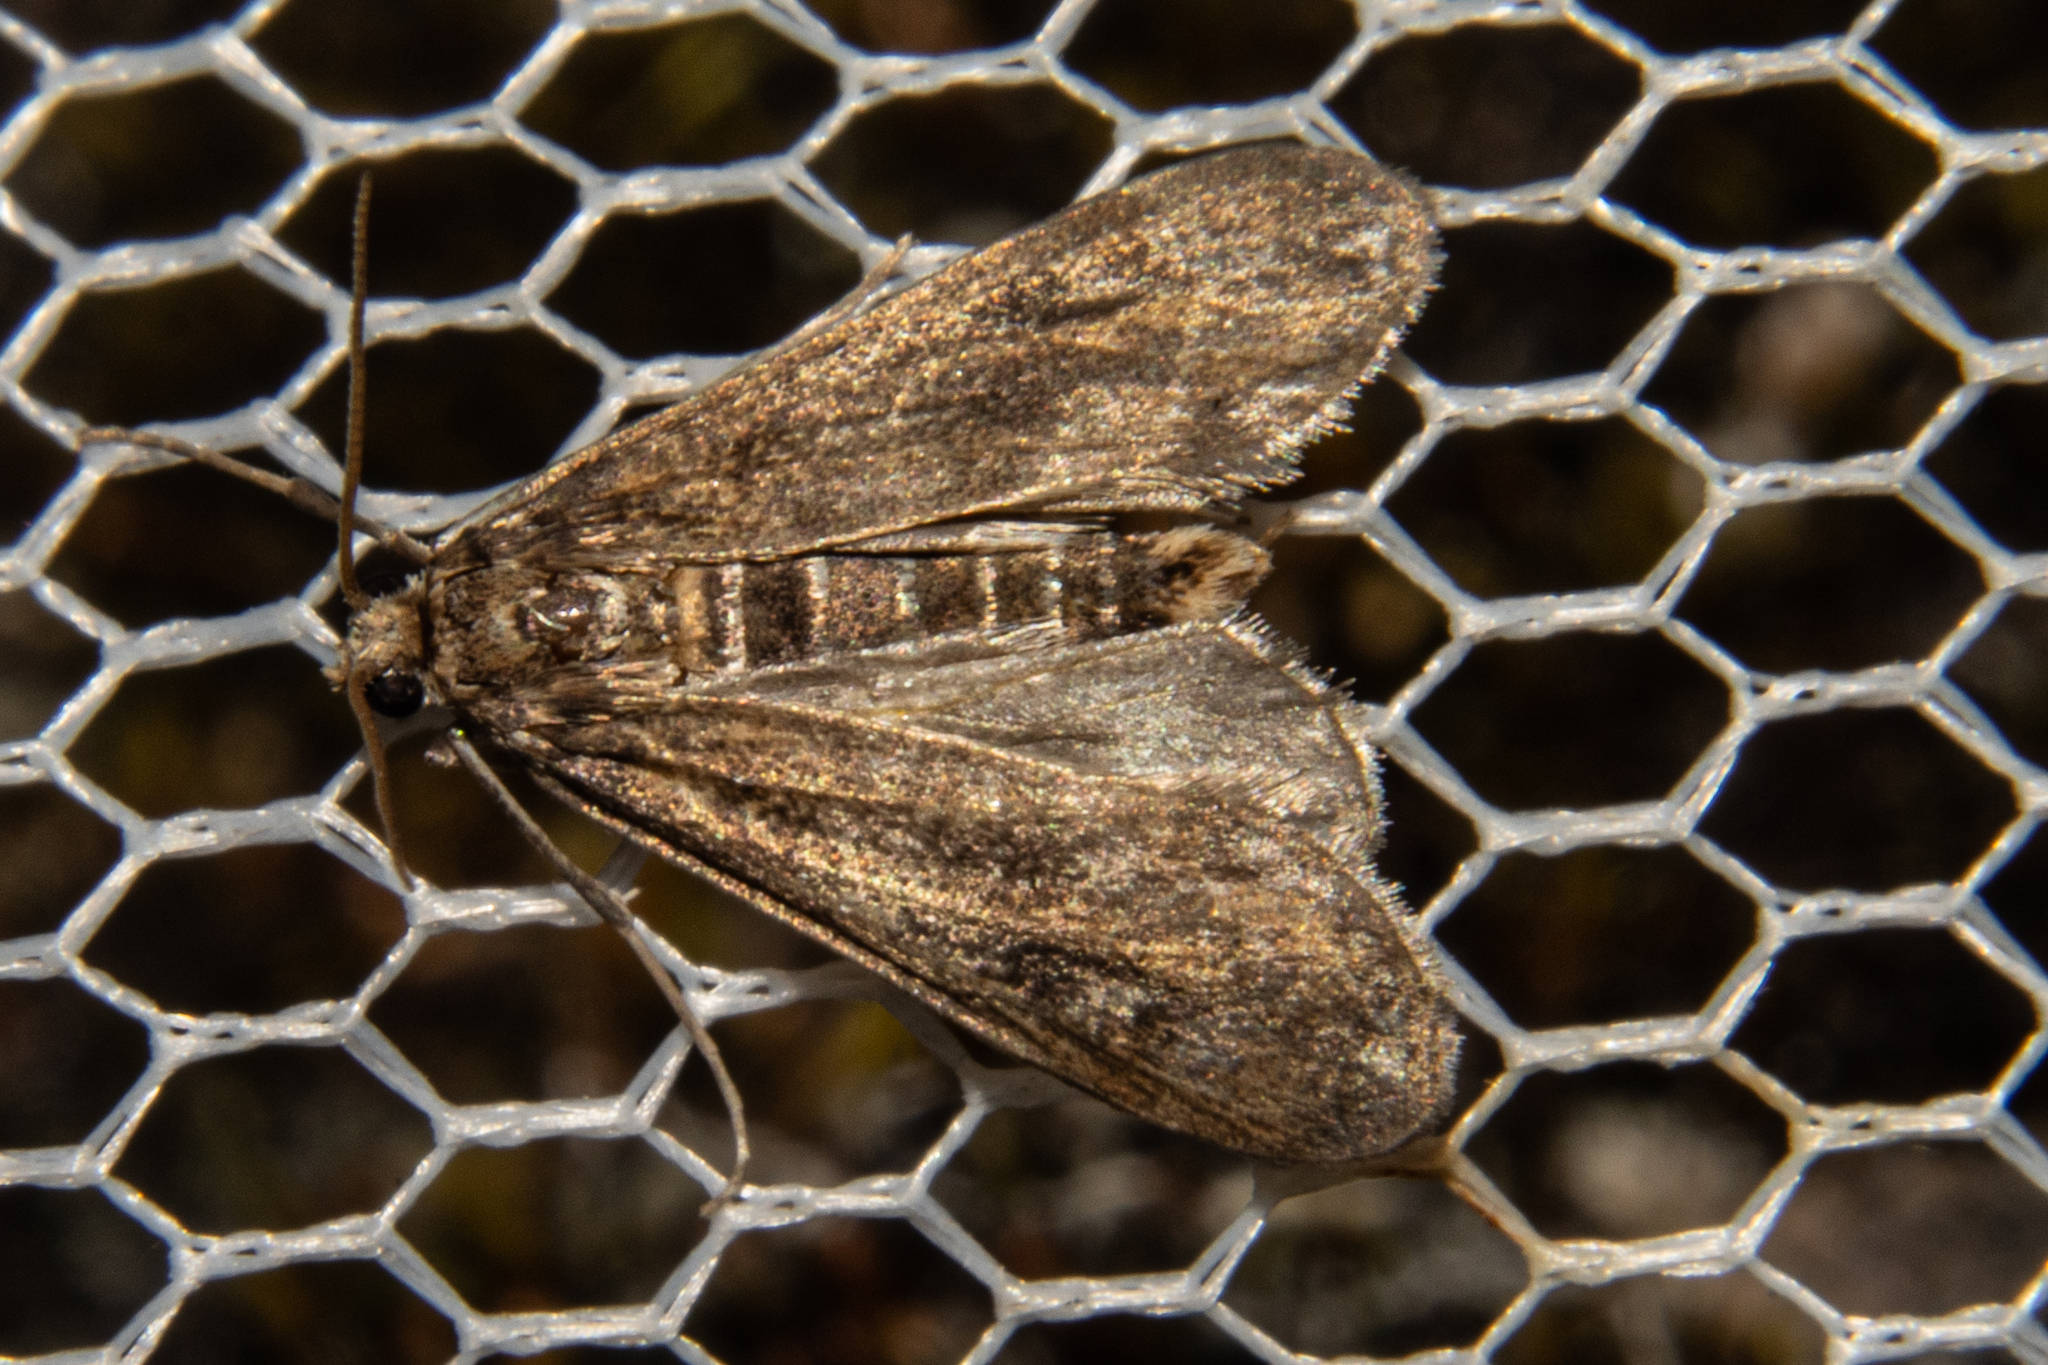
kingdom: Animalia
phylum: Arthropoda
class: Insecta
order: Lepidoptera
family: Crambidae
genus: Hygraula
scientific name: Hygraula nitens
